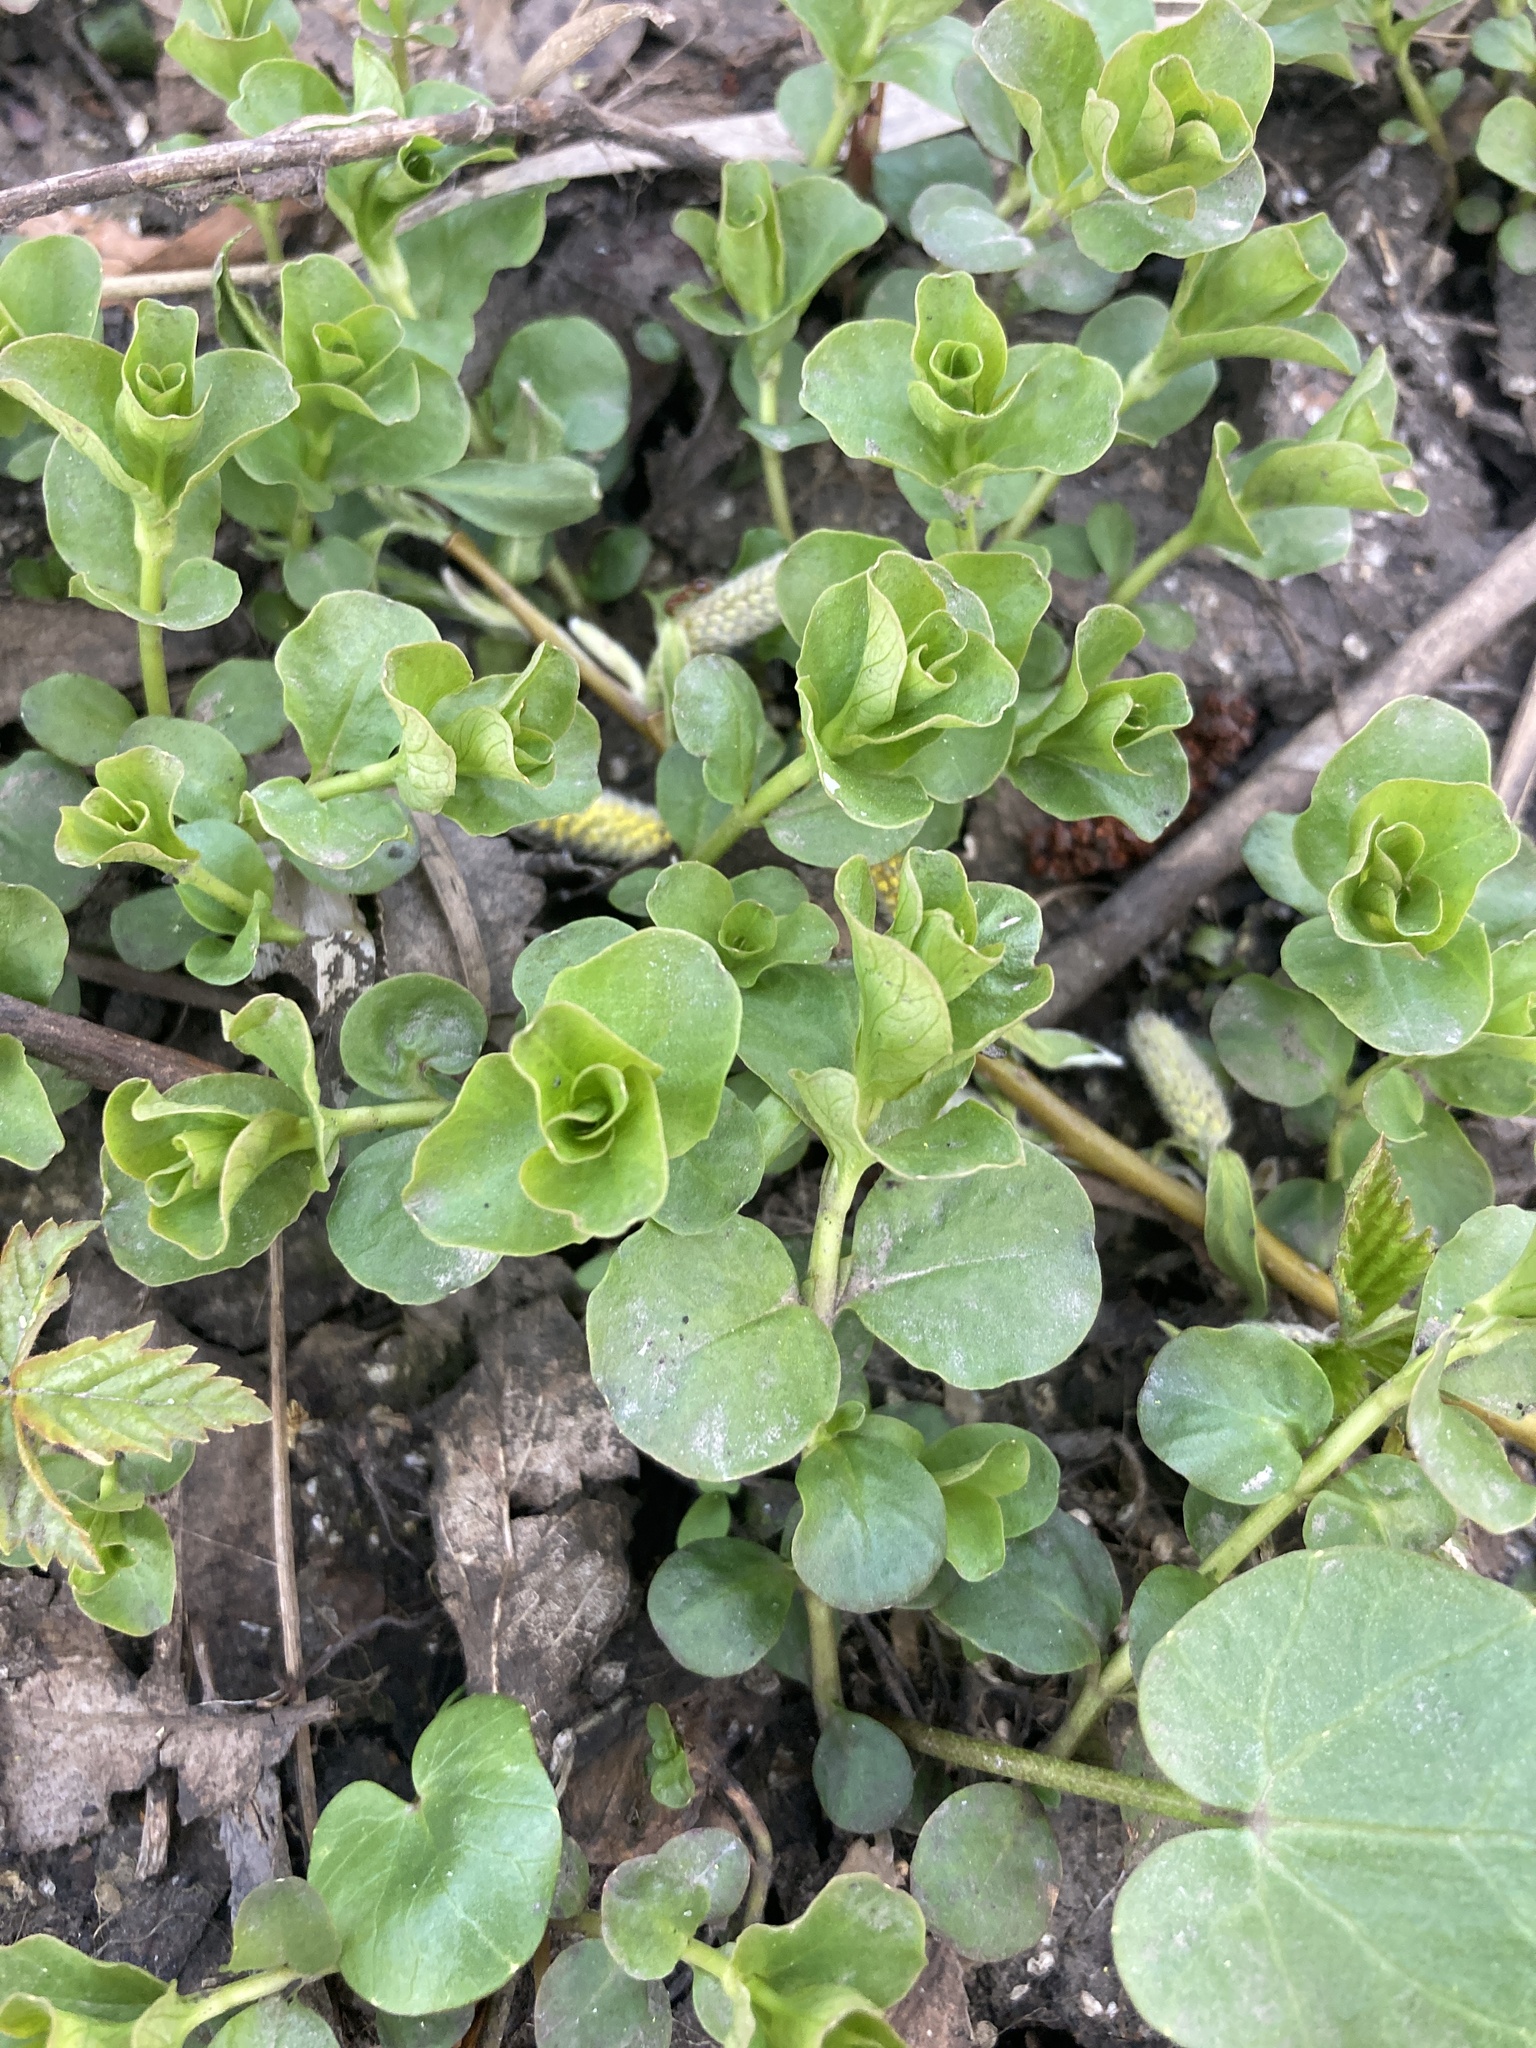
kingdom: Plantae
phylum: Tracheophyta
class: Magnoliopsida
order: Ericales
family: Primulaceae
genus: Lysimachia
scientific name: Lysimachia nummularia
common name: Moneywort
